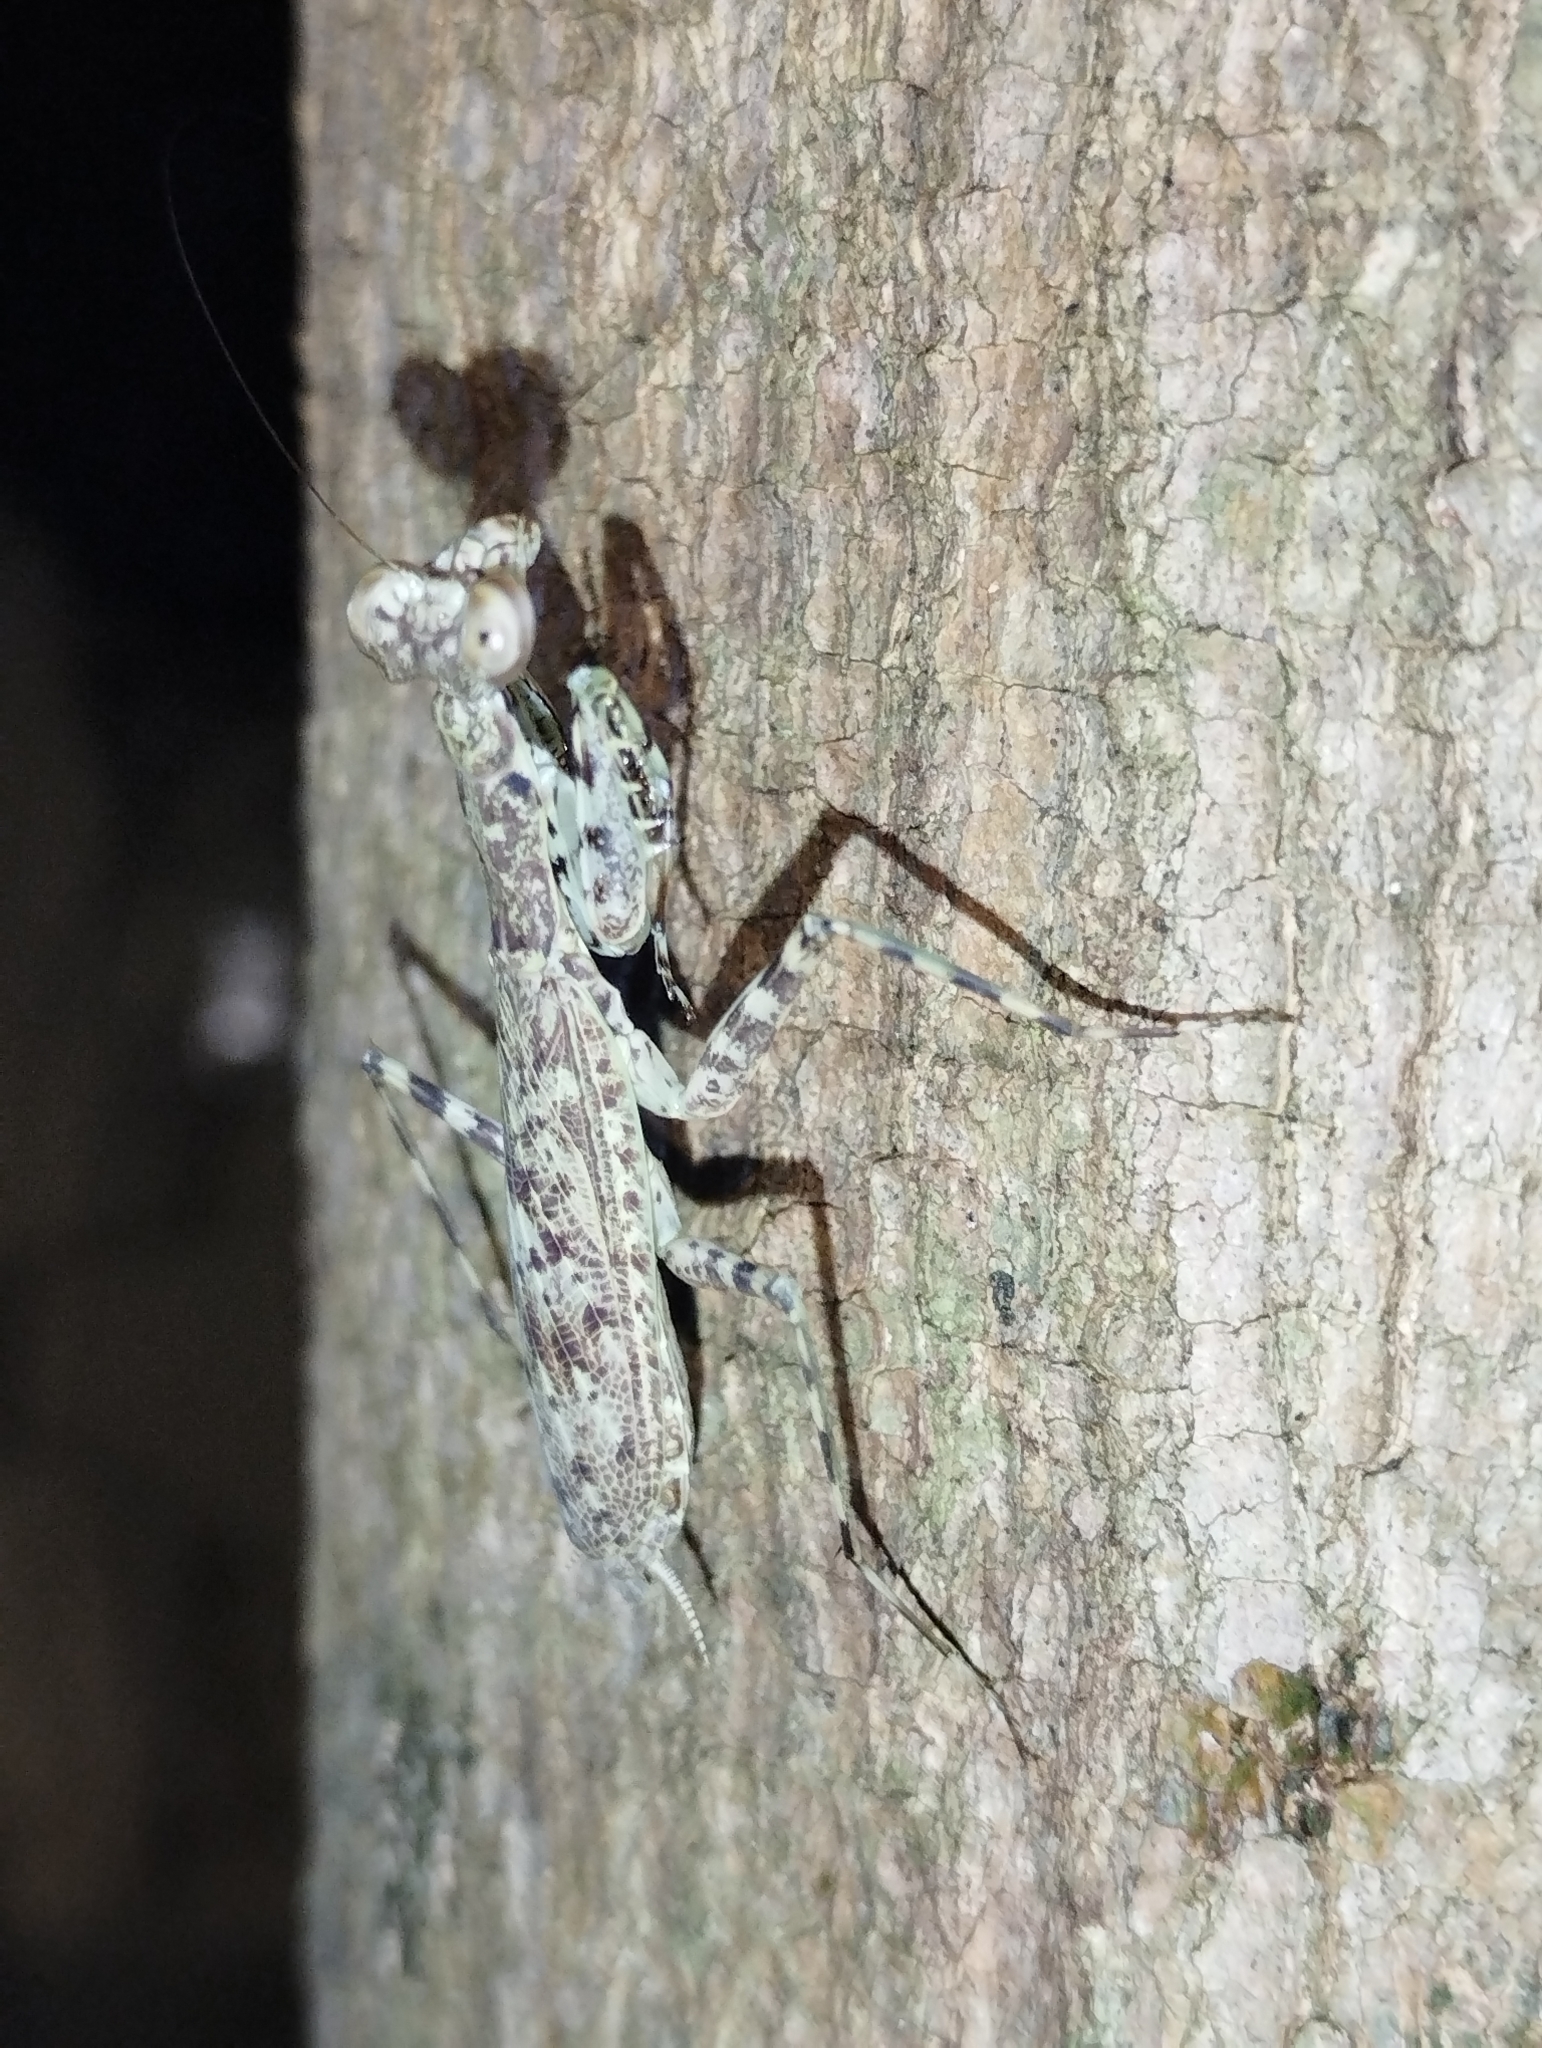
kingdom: Animalia
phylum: Arthropoda
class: Insecta
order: Mantodea
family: Liturgusidae
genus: Liturgusa
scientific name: Liturgusa maya
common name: Mantis
